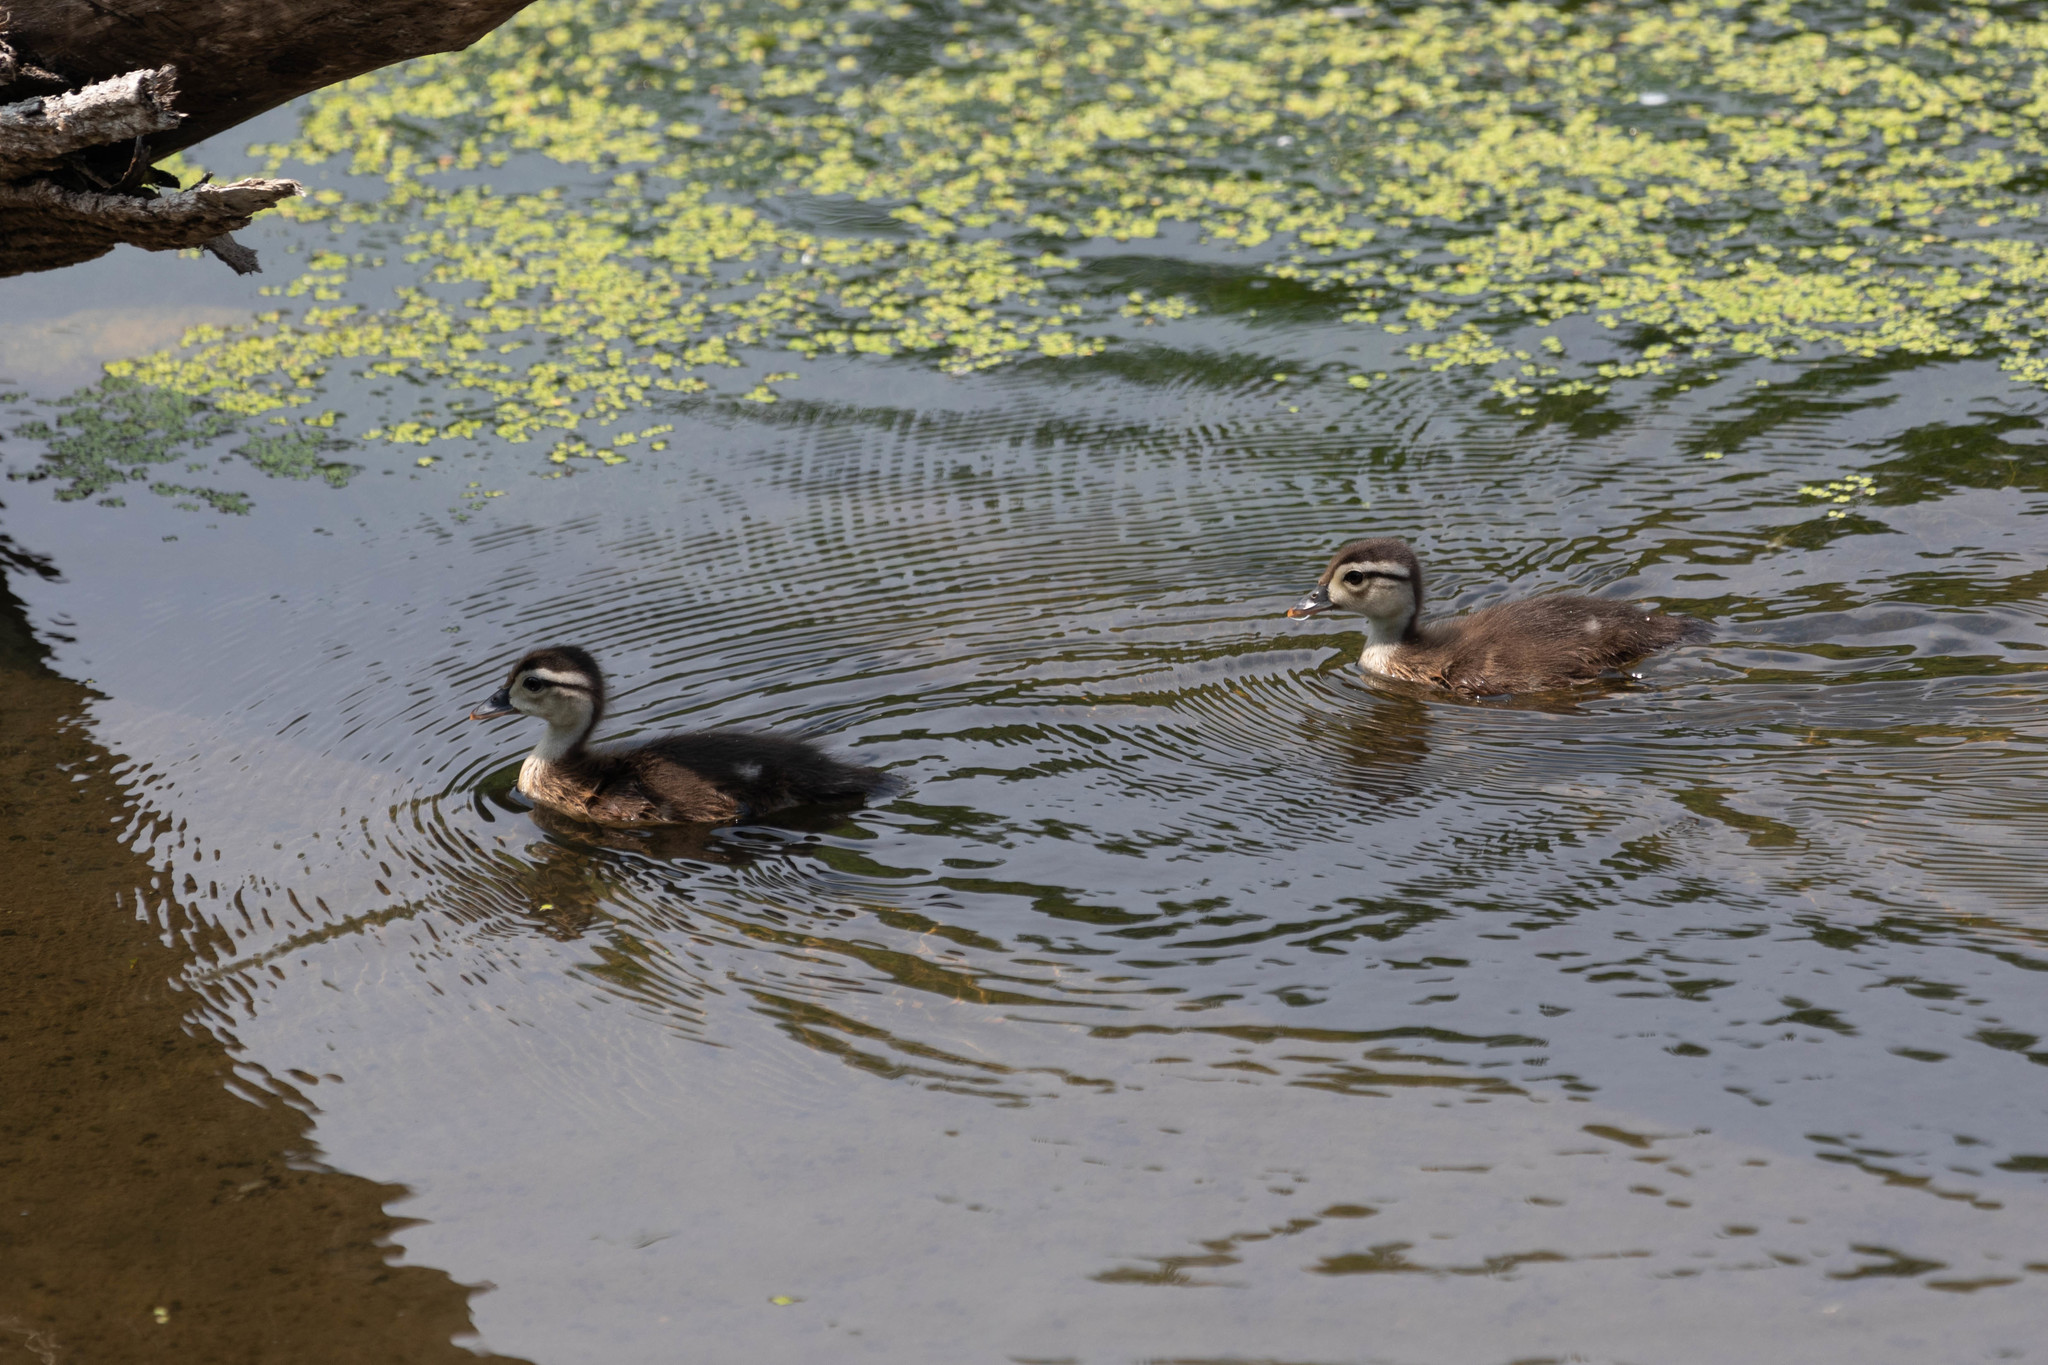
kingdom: Animalia
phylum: Chordata
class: Aves
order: Anseriformes
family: Anatidae
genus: Aix
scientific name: Aix sponsa
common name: Wood duck
